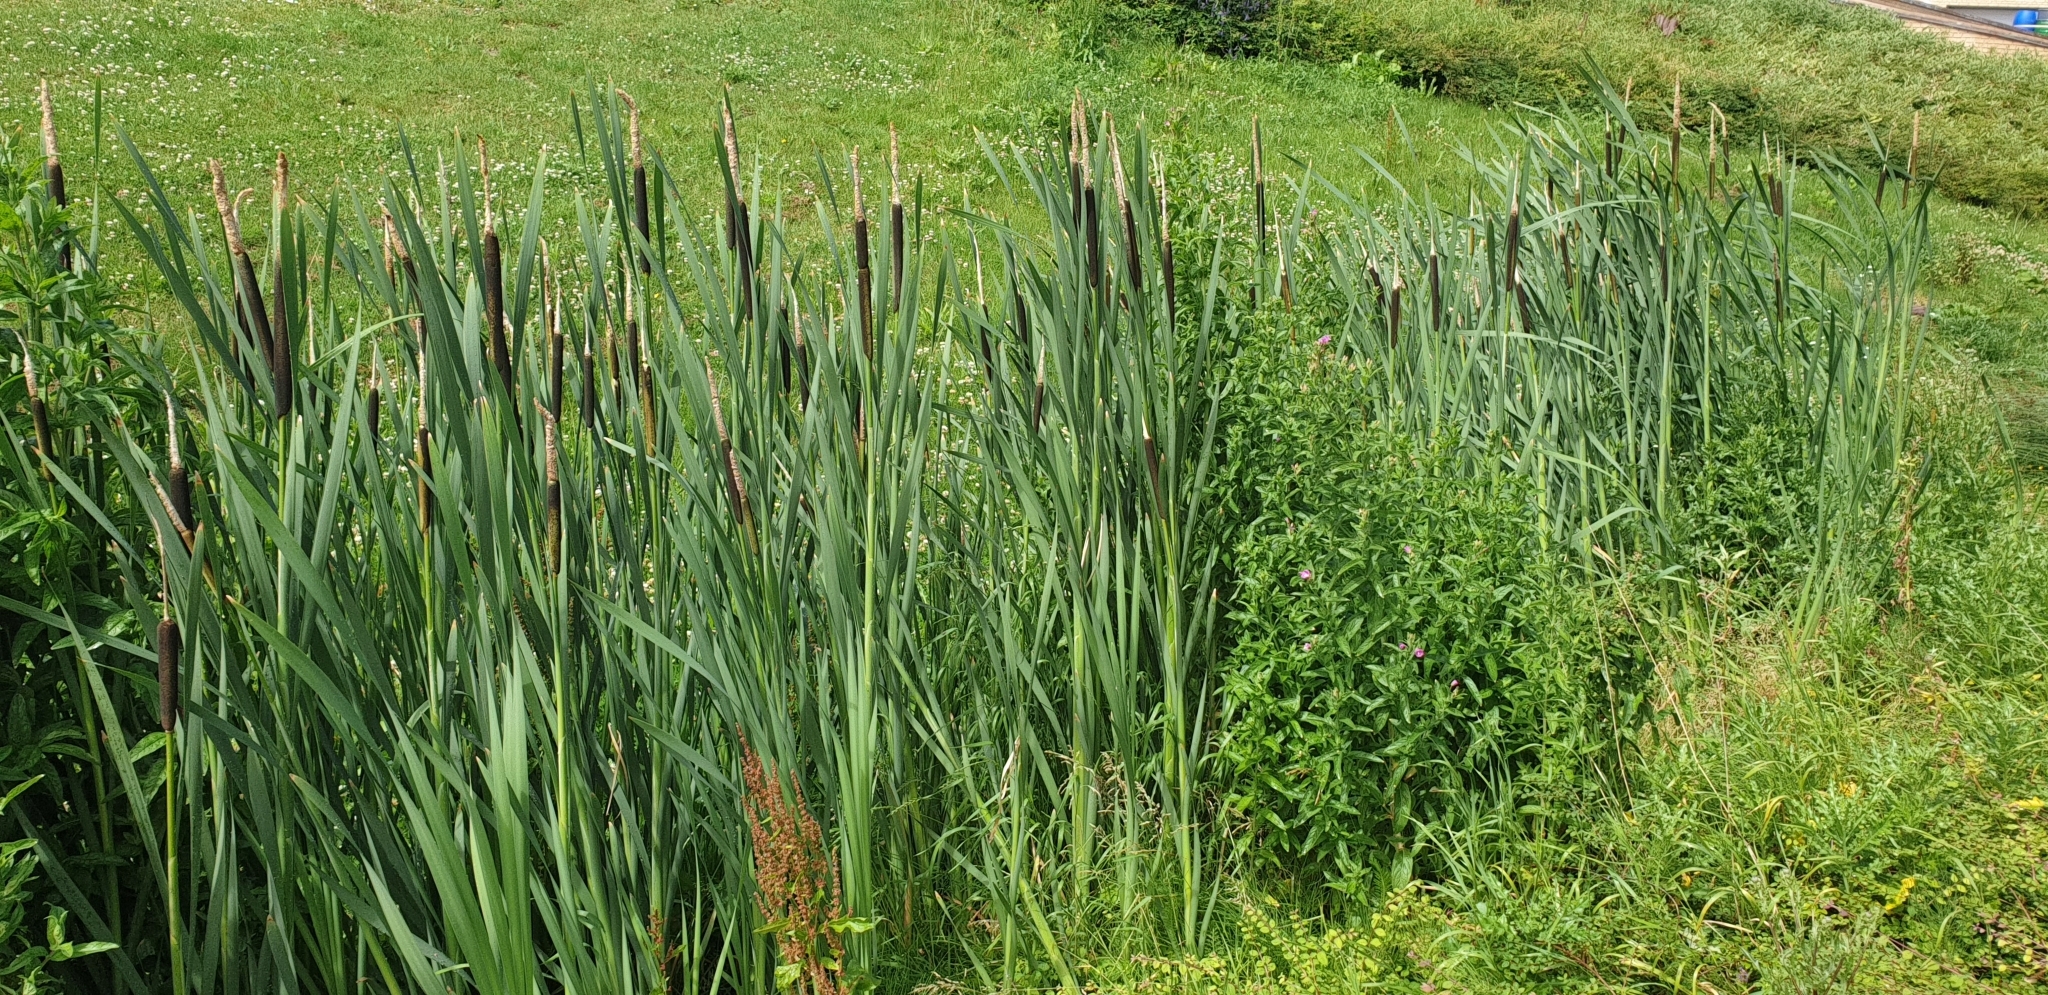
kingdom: Plantae
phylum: Tracheophyta
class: Liliopsida
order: Poales
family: Typhaceae
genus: Typha
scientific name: Typha latifolia
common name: Broadleaf cattail
